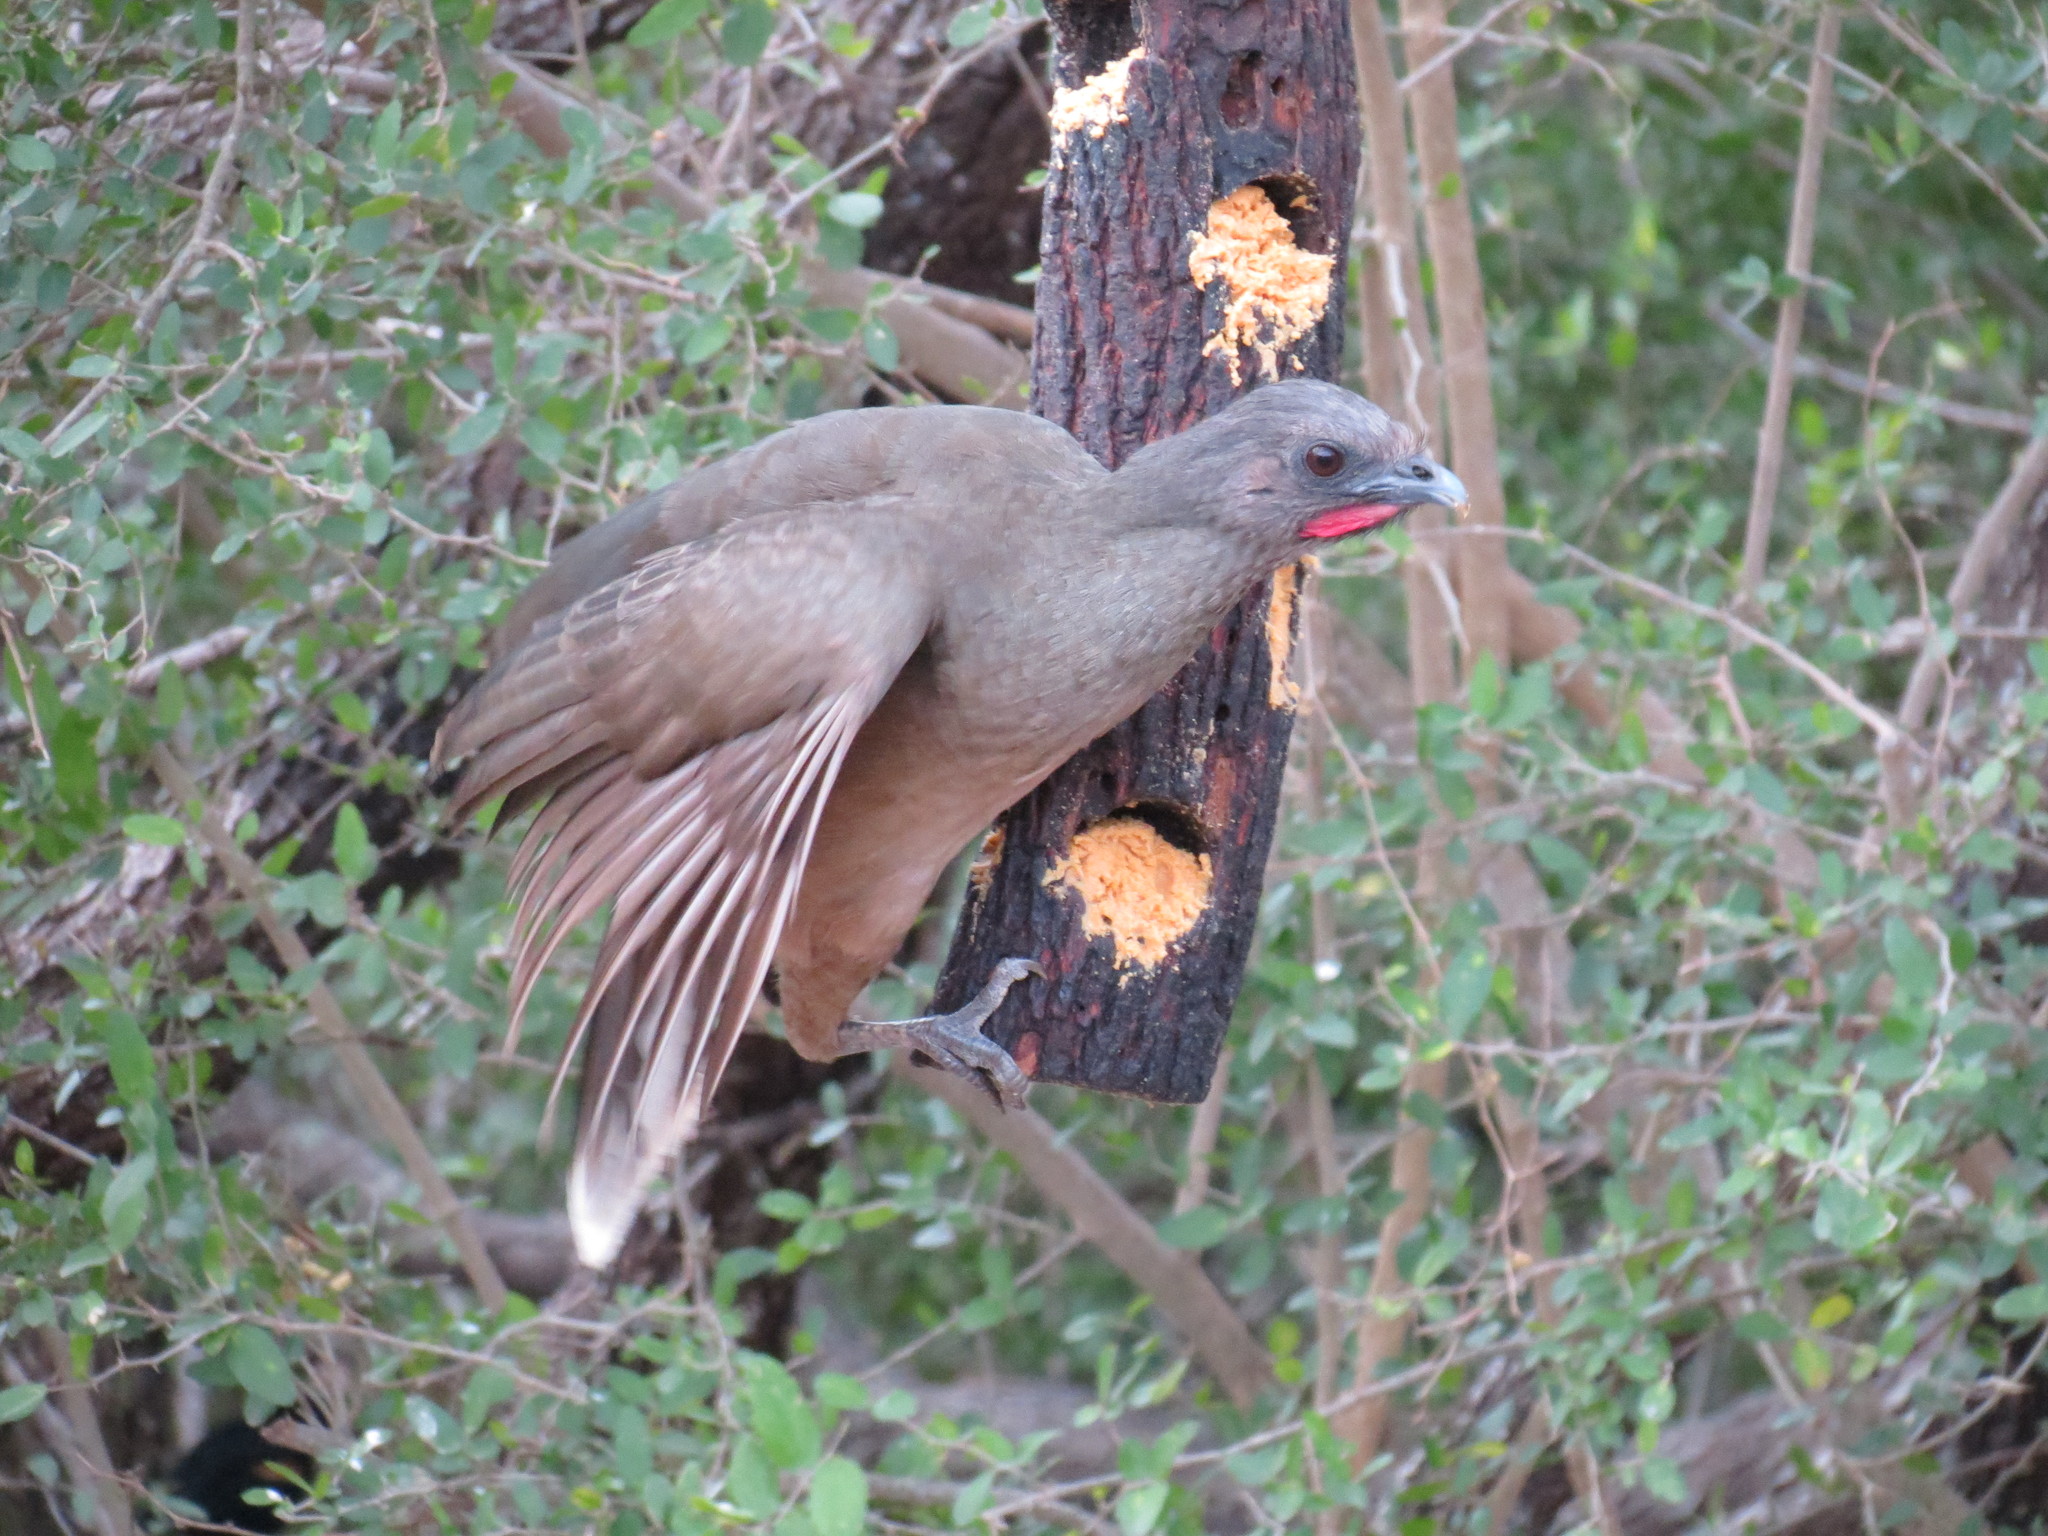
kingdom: Animalia
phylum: Chordata
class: Aves
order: Galliformes
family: Cracidae
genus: Ortalis
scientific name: Ortalis vetula
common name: Plain chachalaca
